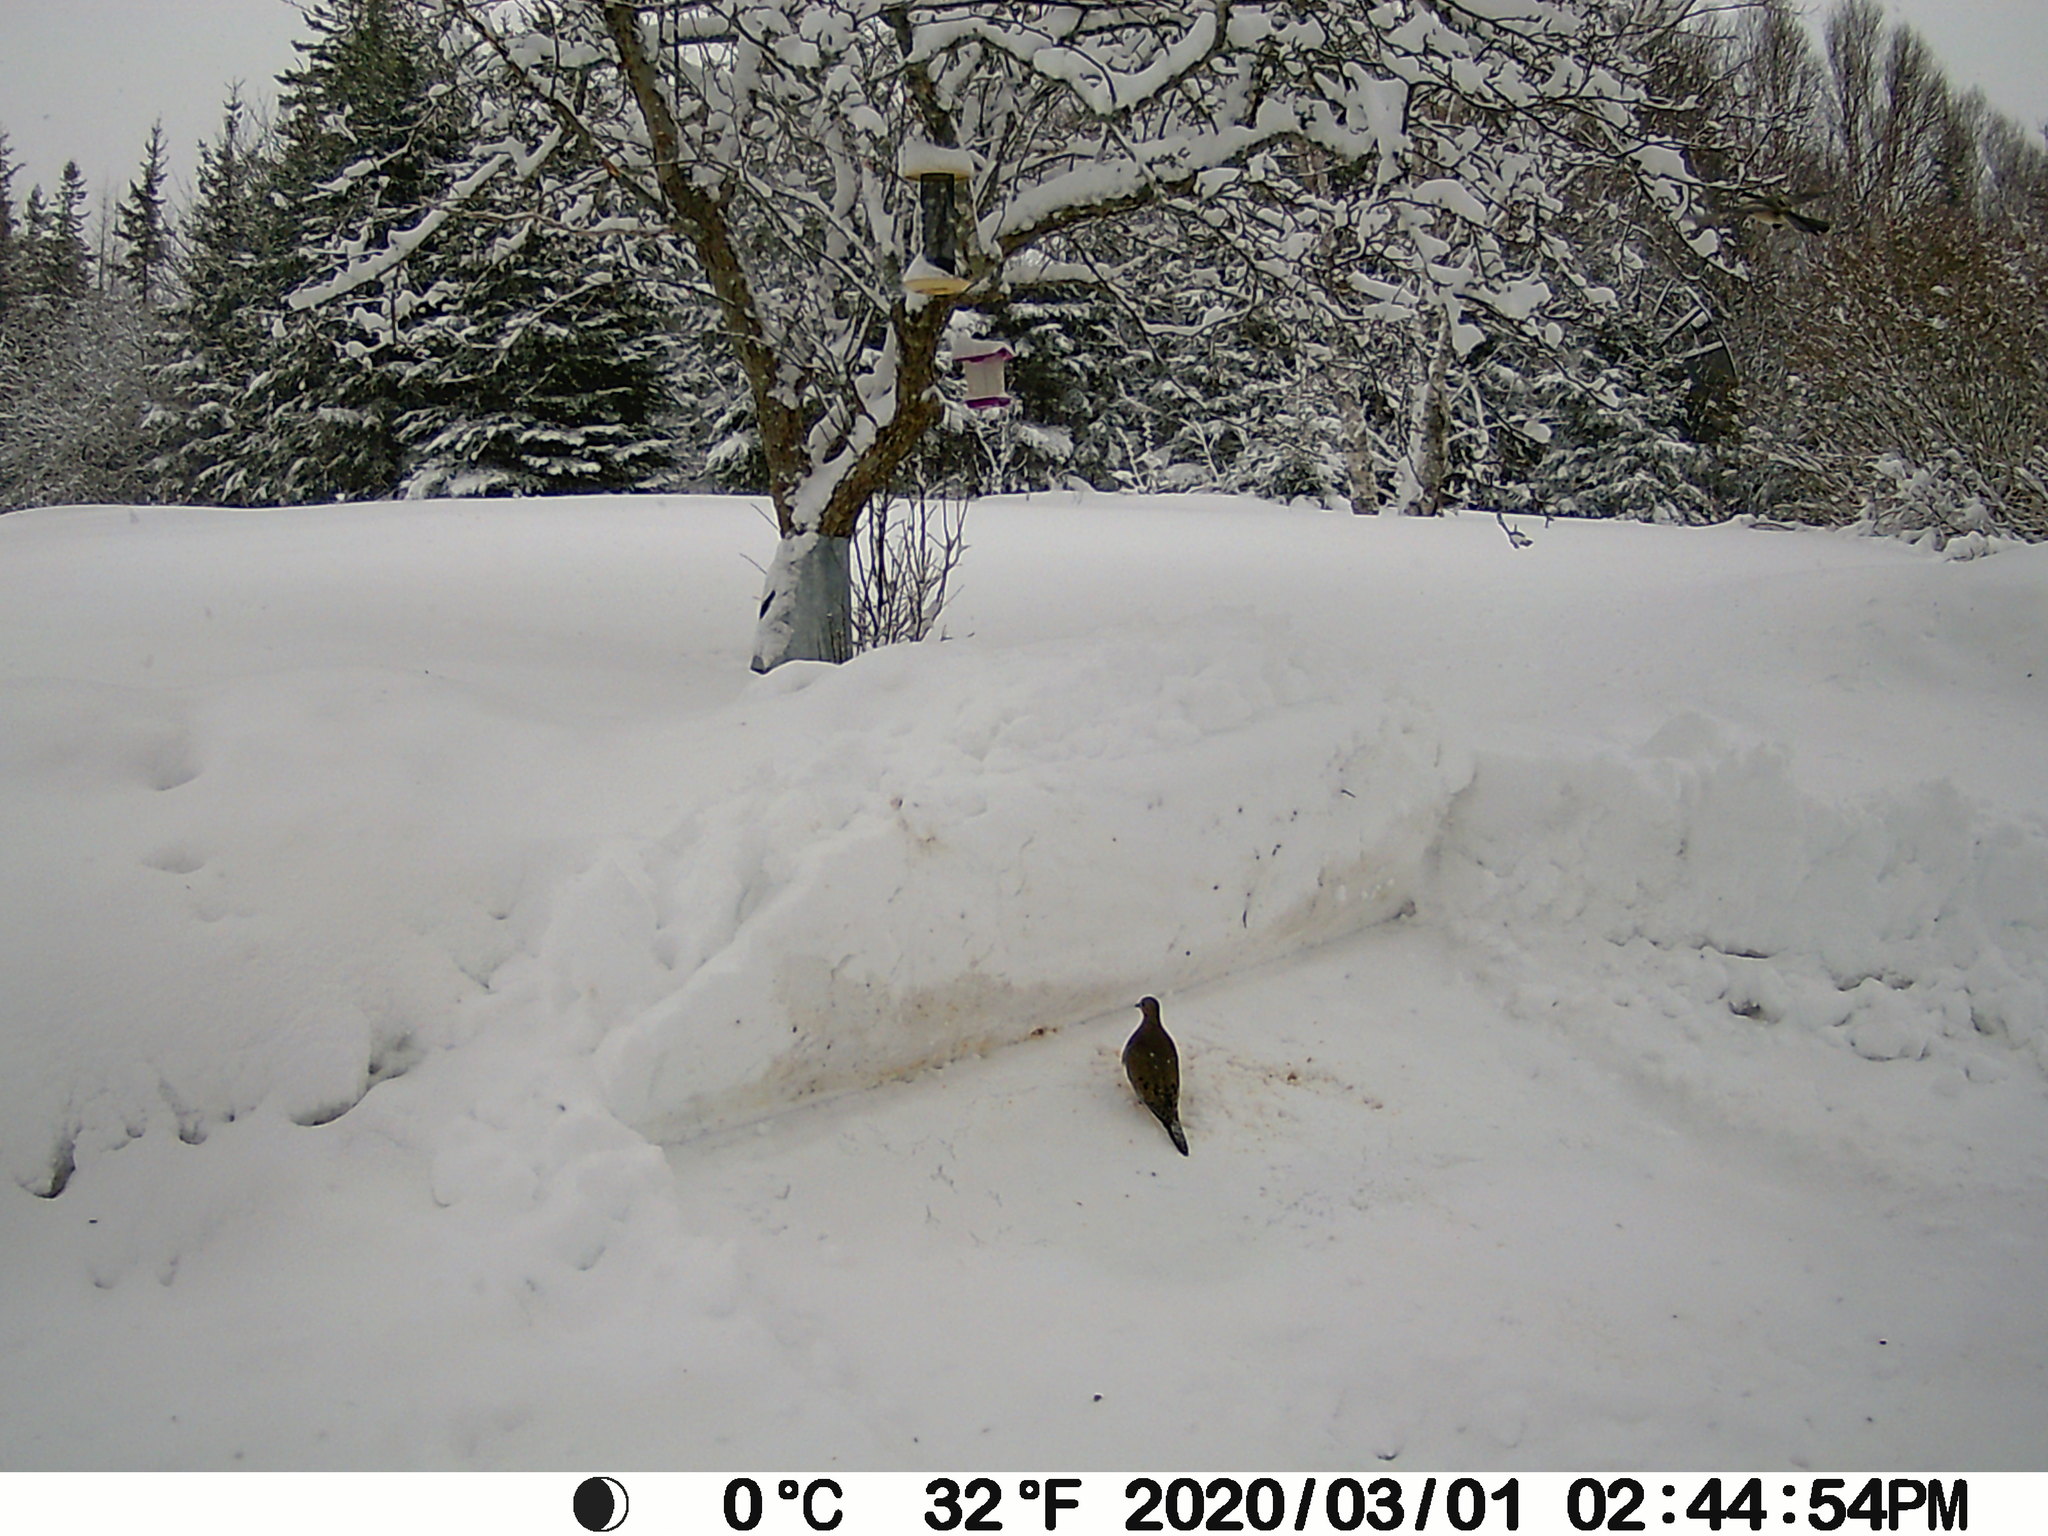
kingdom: Animalia
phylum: Chordata
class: Aves
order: Columbiformes
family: Columbidae
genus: Zenaida
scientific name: Zenaida macroura
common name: Mourning dove
